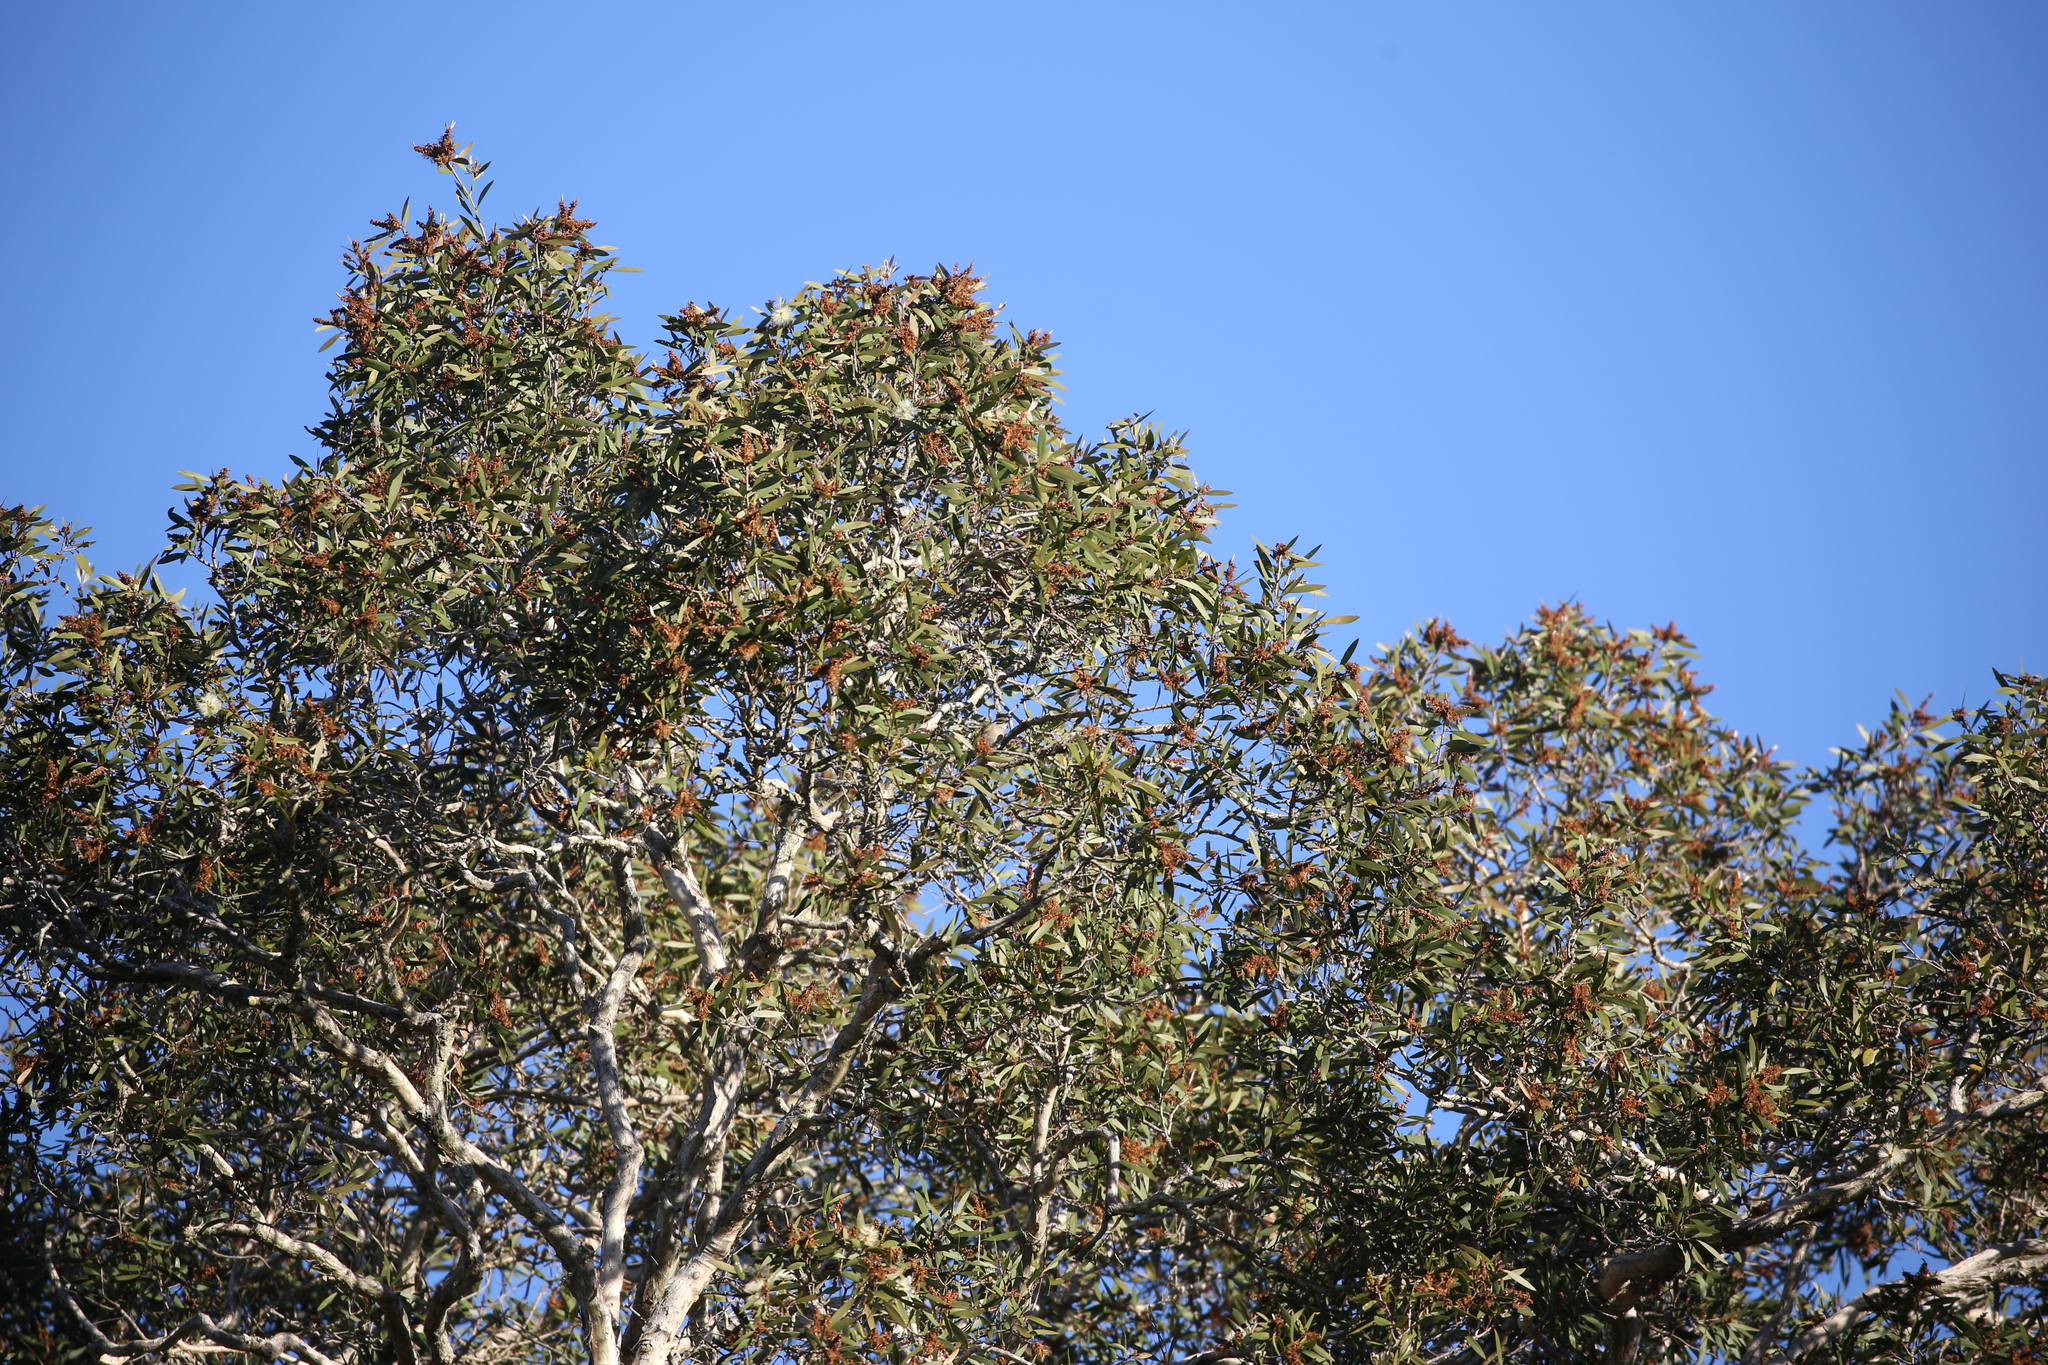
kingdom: Animalia
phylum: Chordata
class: Aves
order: Passeriformes
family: Meliphagidae
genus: Caligavis
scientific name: Caligavis chrysops
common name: Yellow-faced honeyeater
